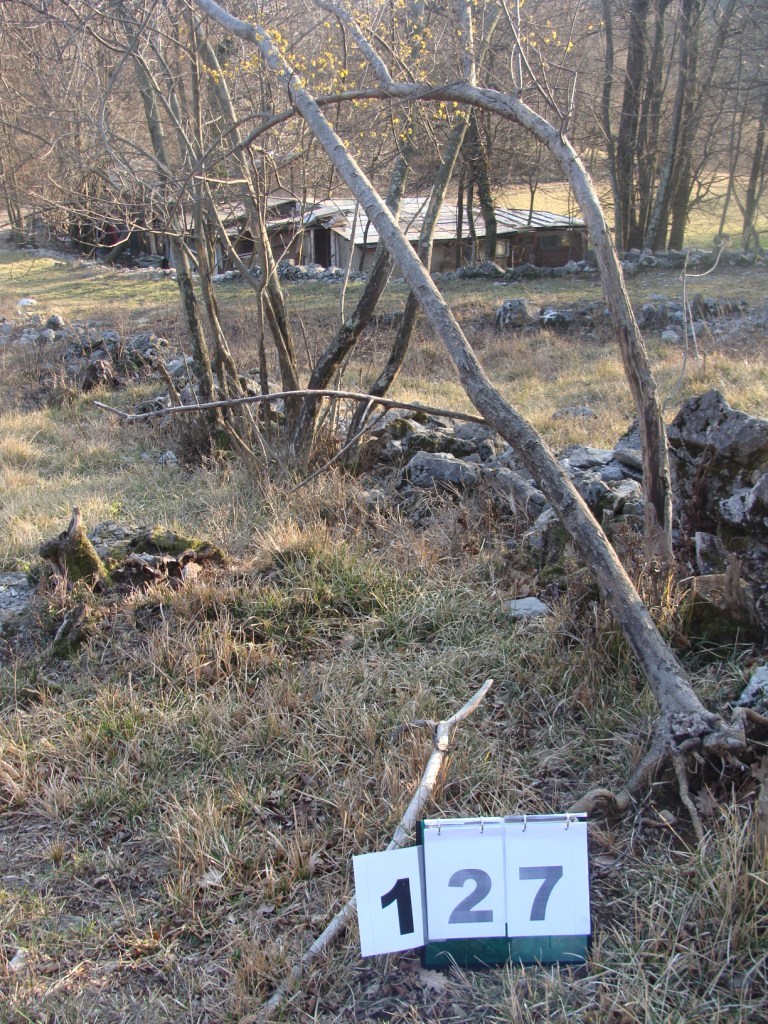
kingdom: Plantae
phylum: Tracheophyta
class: Magnoliopsida
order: Cornales
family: Cornaceae
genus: Cornus
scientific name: Cornus mas
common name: Cornelian-cherry
